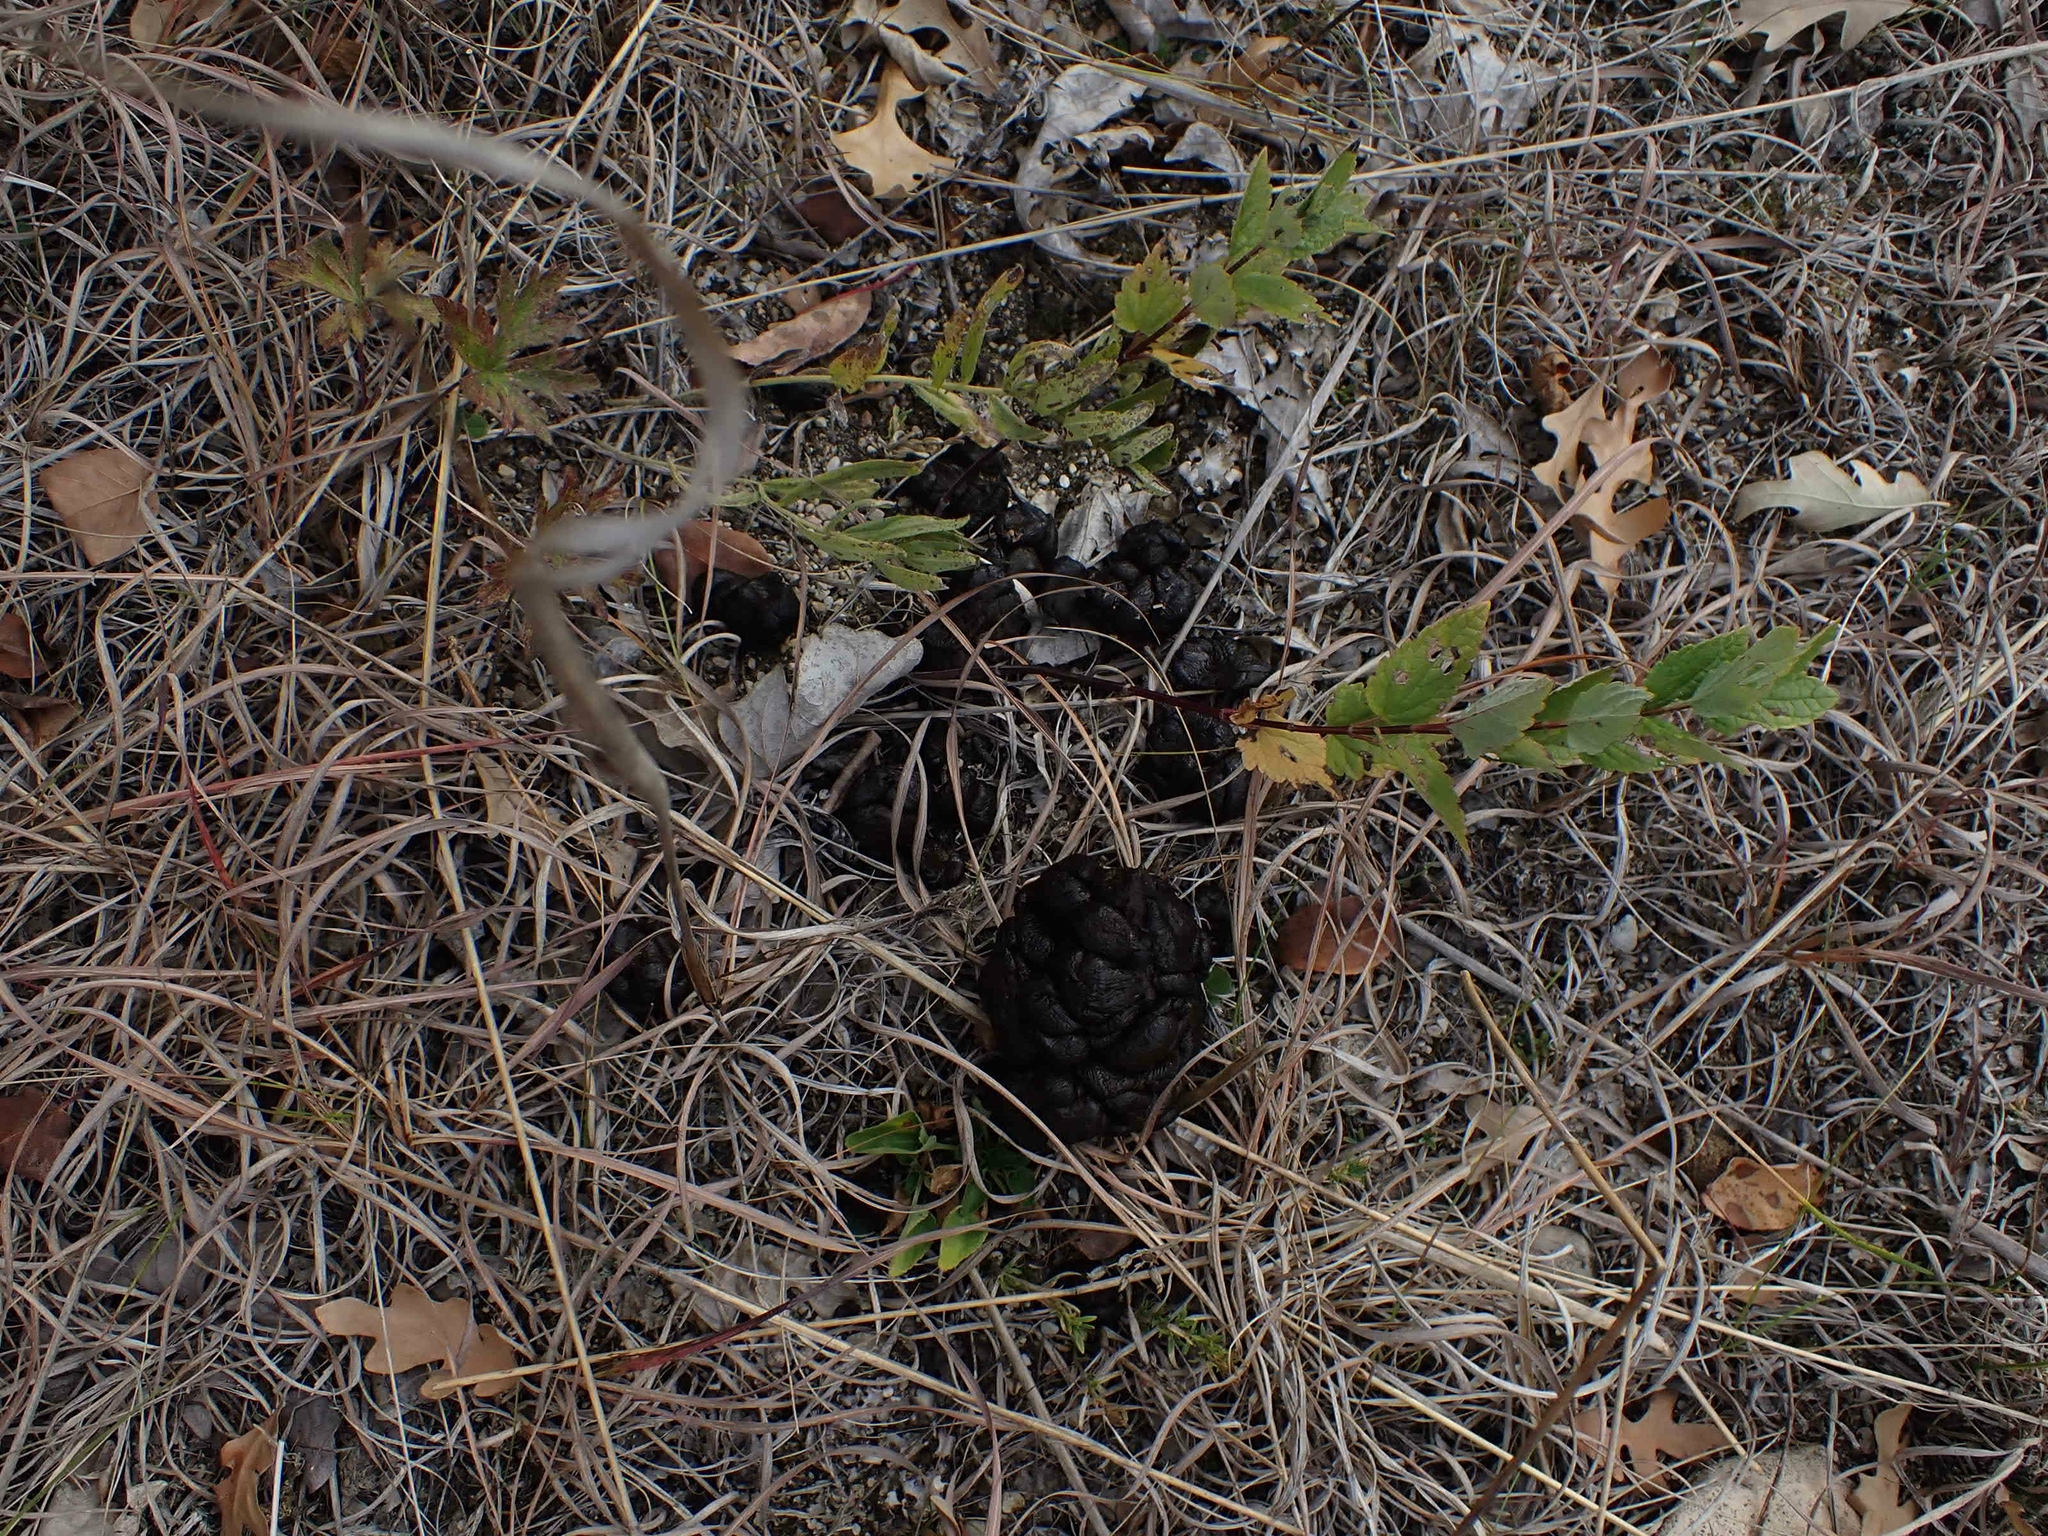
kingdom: Animalia
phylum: Chordata
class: Mammalia
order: Artiodactyla
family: Cervidae
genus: Odocoileus
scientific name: Odocoileus virginianus
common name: White-tailed deer
